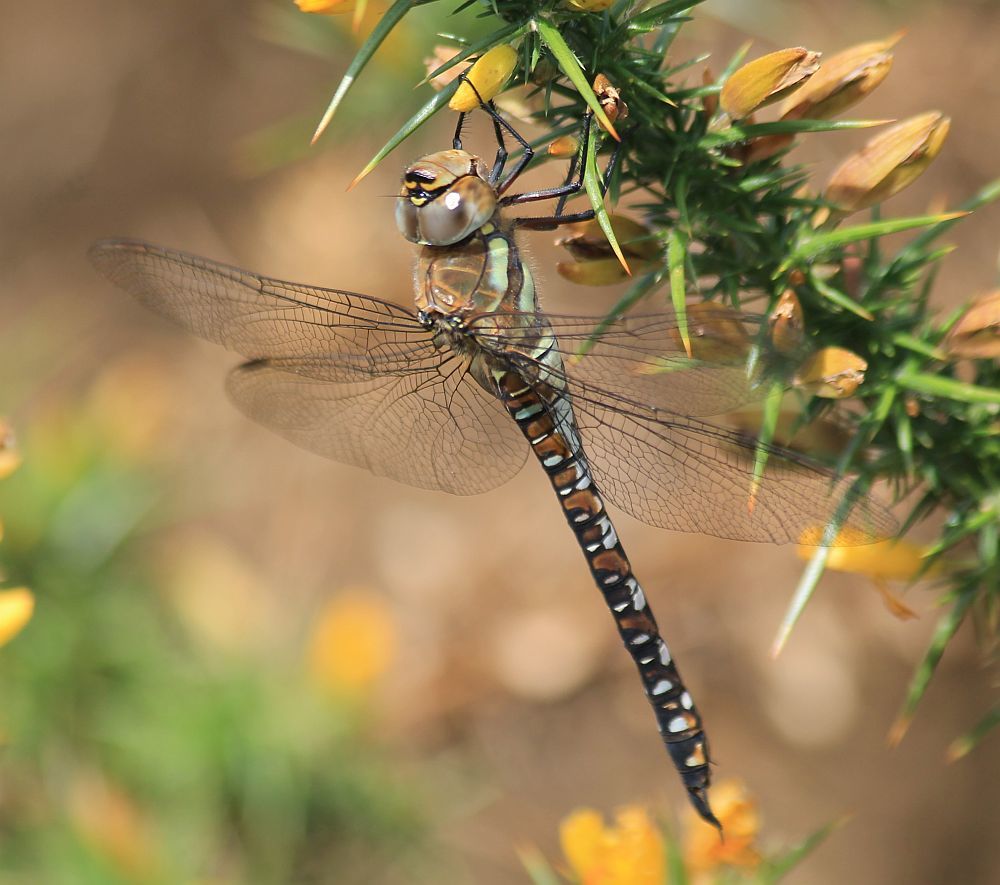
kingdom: Animalia
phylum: Arthropoda
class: Insecta
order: Odonata
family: Aeshnidae
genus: Aeshna
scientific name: Aeshna mixta
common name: Migrant hawker
